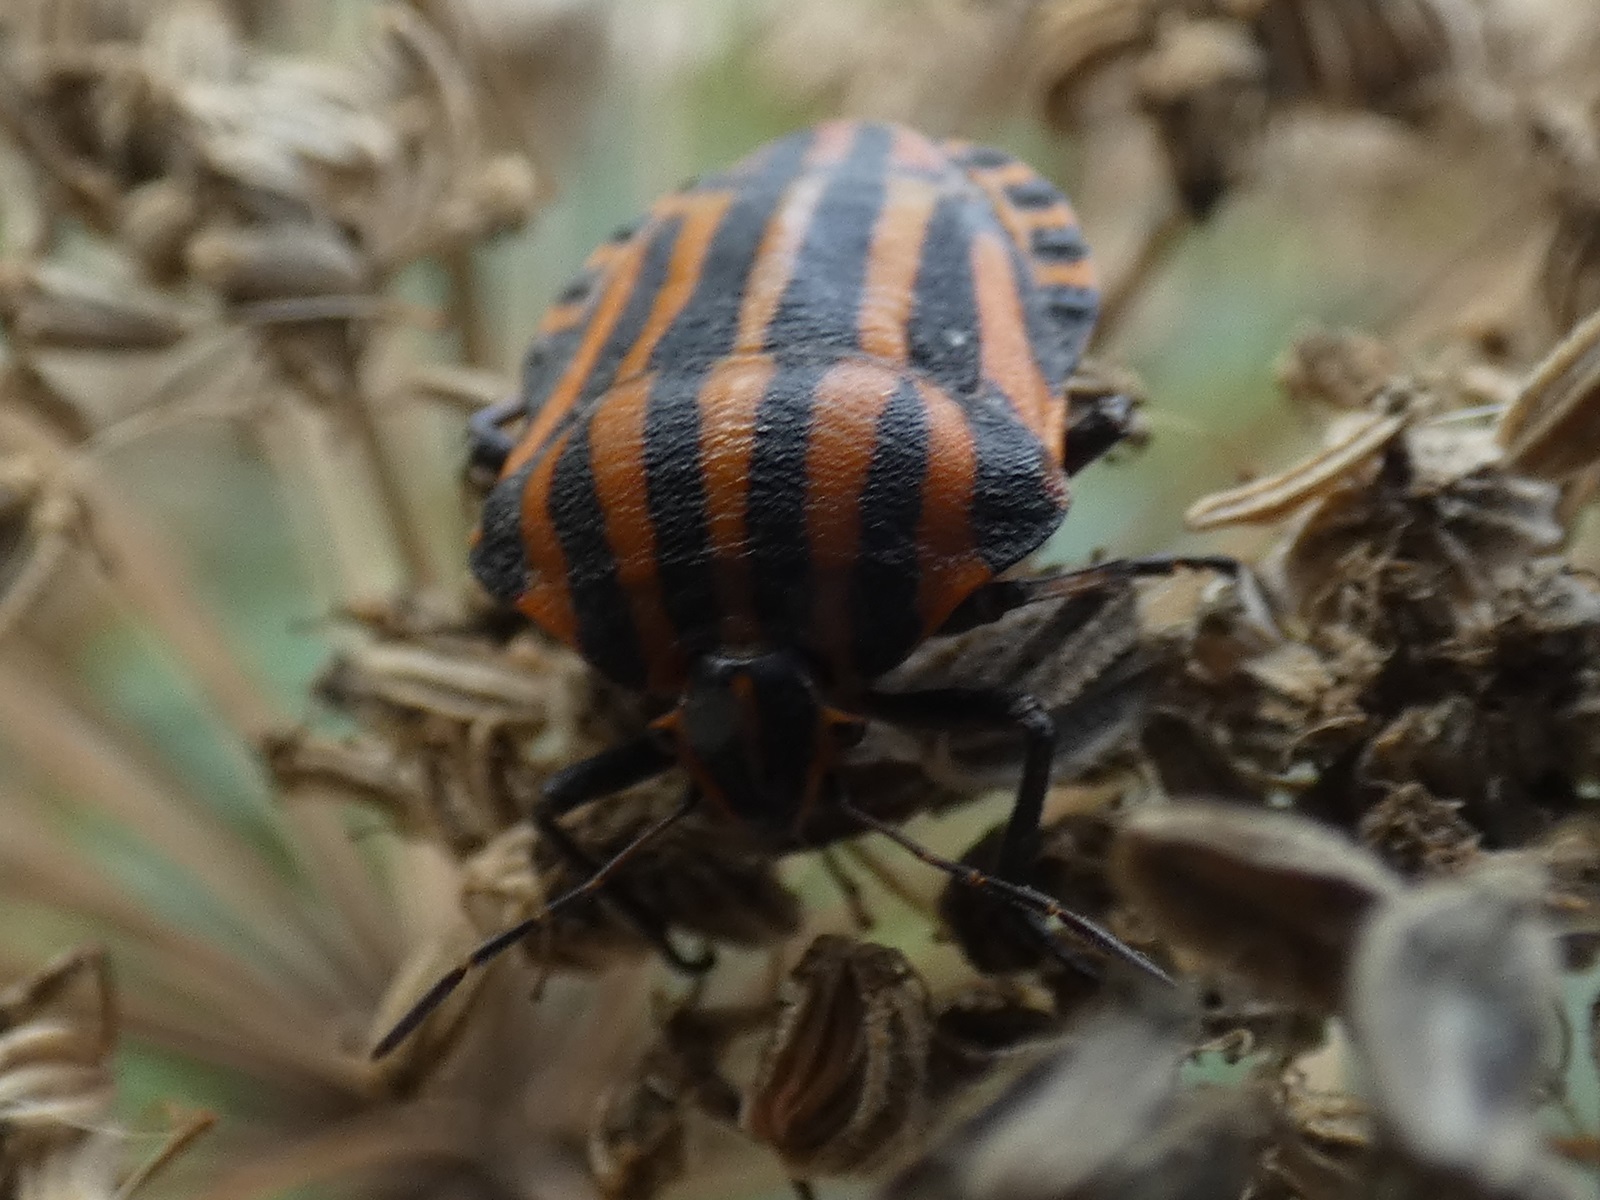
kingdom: Animalia
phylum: Arthropoda
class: Insecta
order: Hemiptera
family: Pentatomidae
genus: Graphosoma
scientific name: Graphosoma italicum
